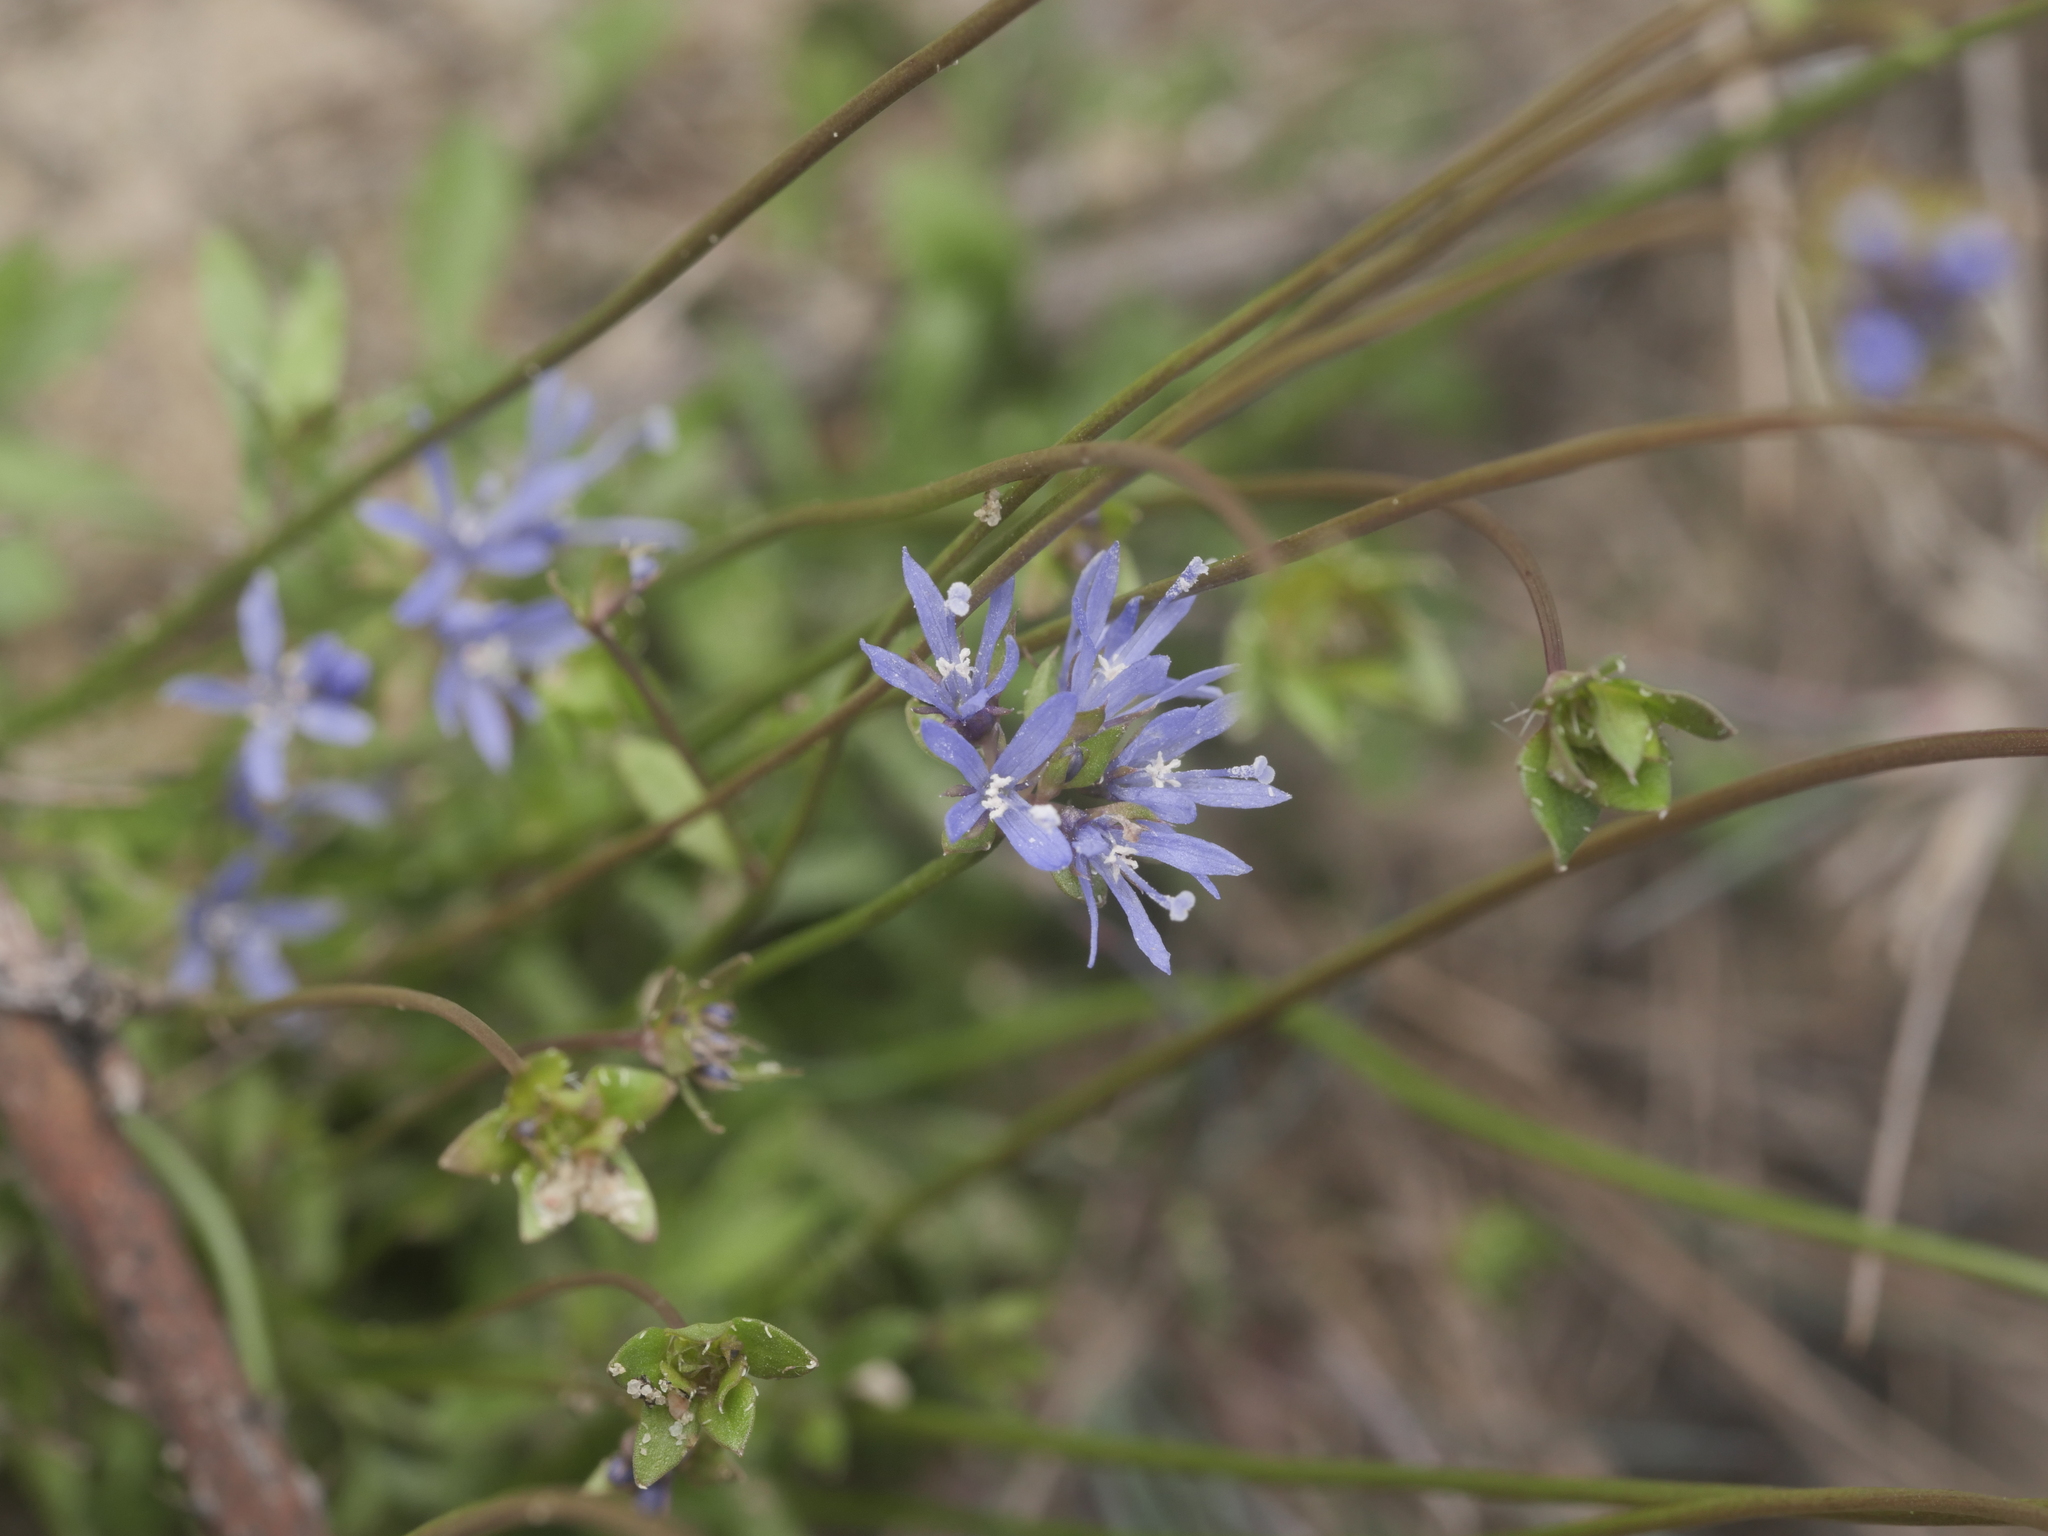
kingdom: Plantae
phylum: Tracheophyta
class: Magnoliopsida
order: Asterales
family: Campanulaceae
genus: Jasione
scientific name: Jasione montana
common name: Sheep's-bit
